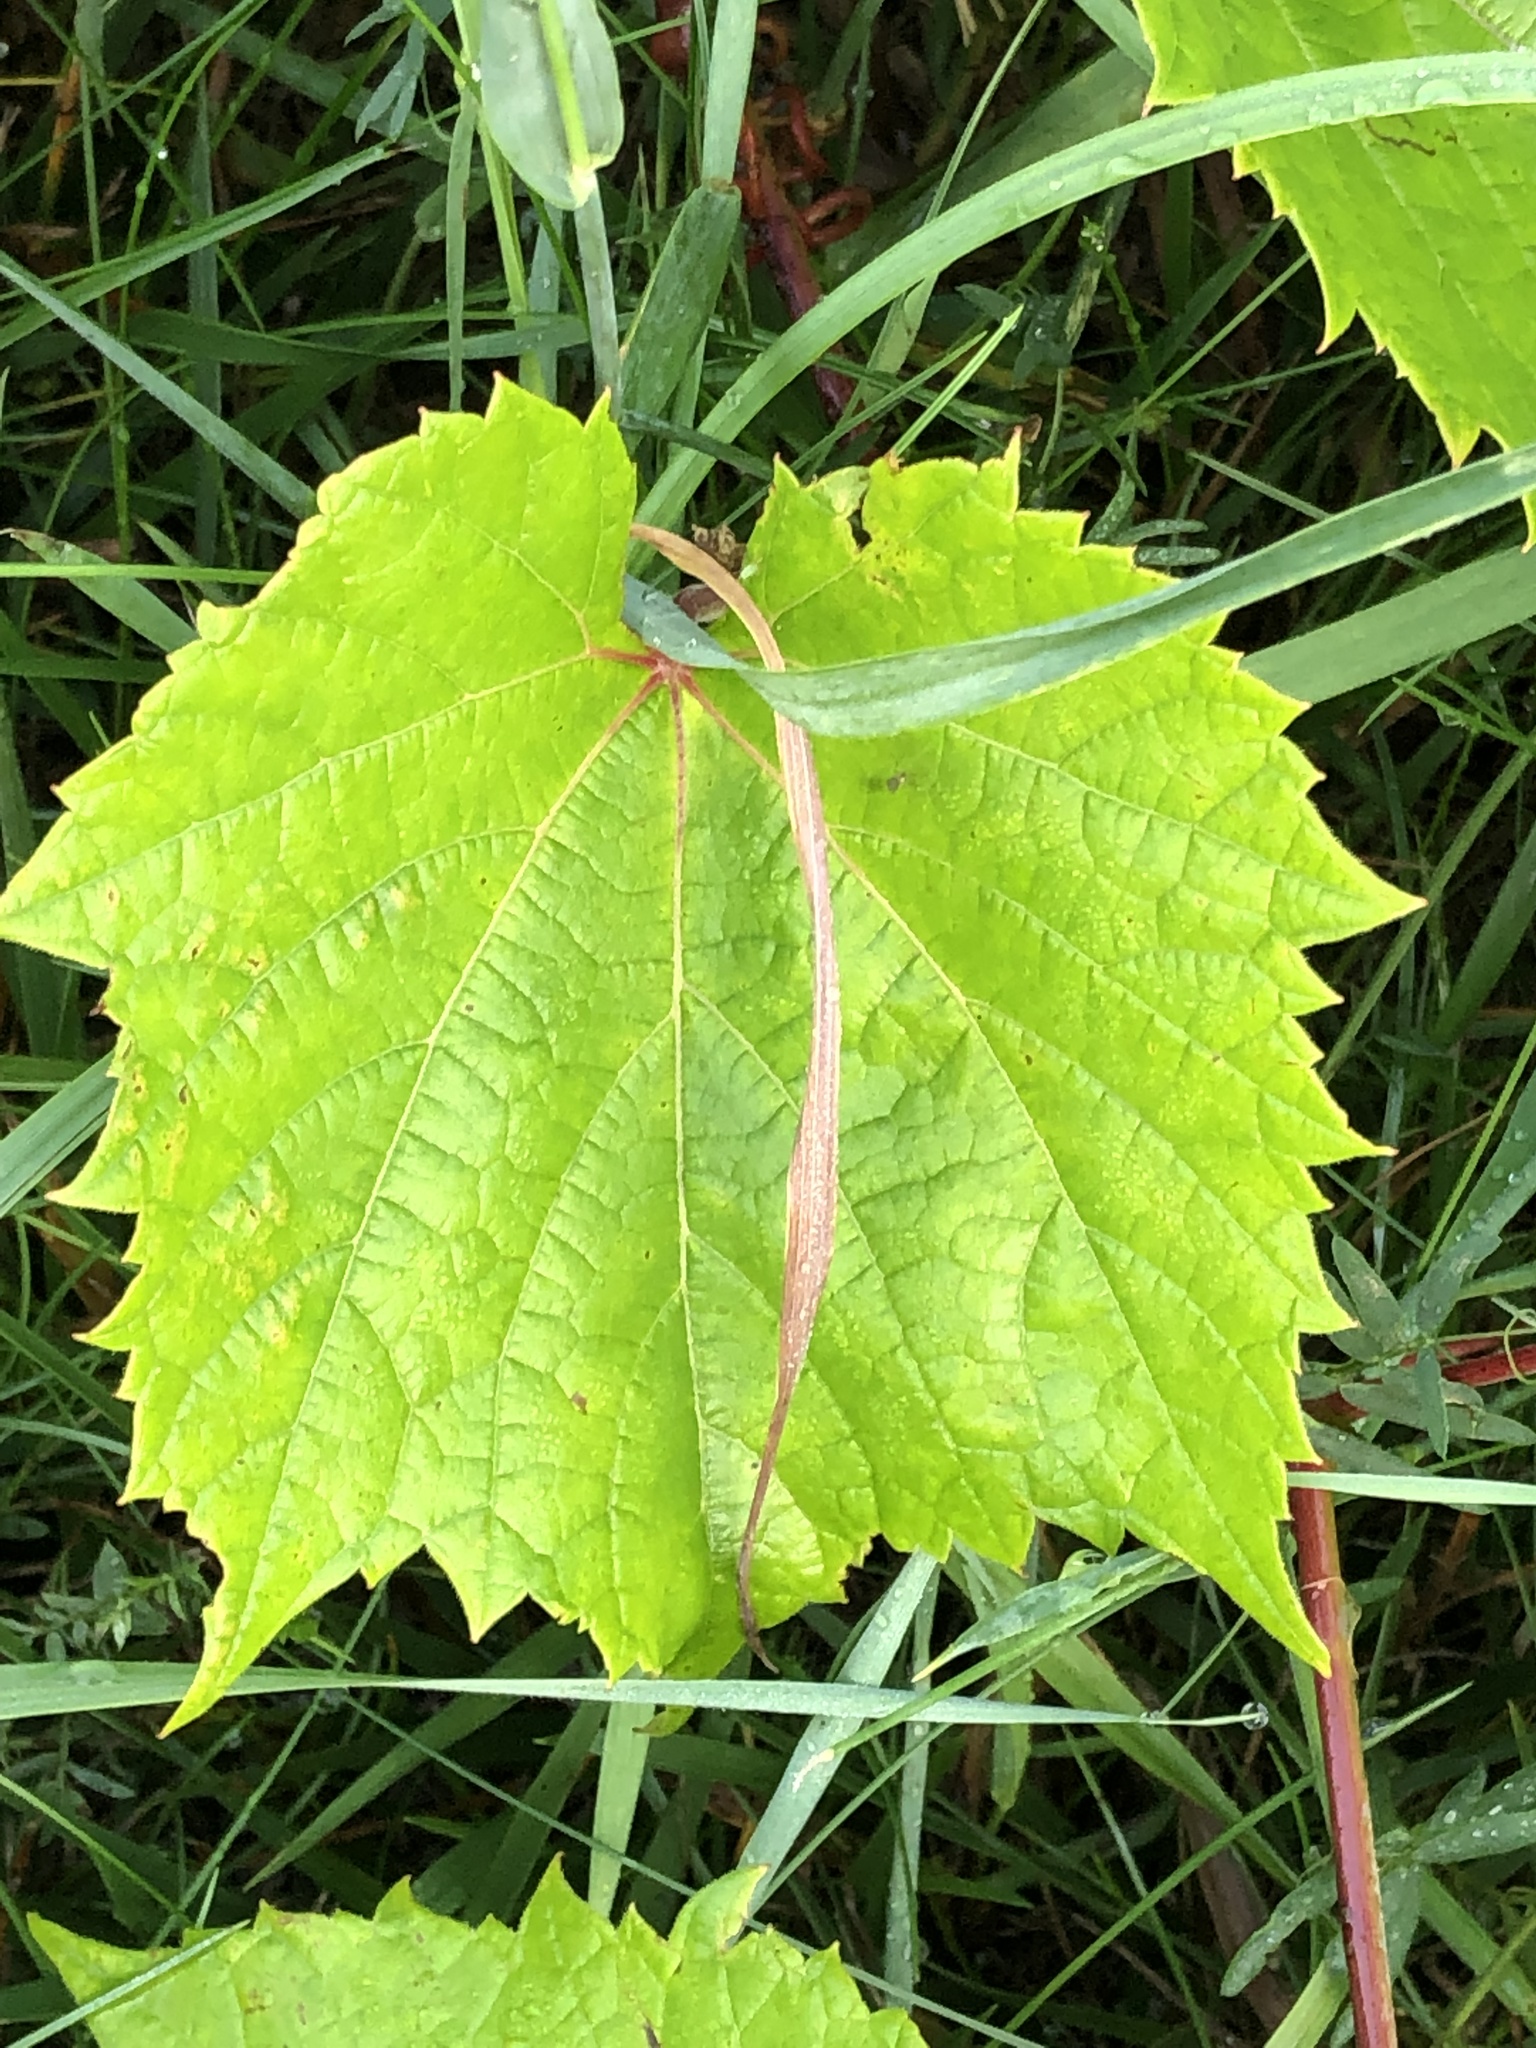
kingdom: Plantae
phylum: Tracheophyta
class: Magnoliopsida
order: Vitales
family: Vitaceae
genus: Vitis
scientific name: Vitis riparia
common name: Frost grape
